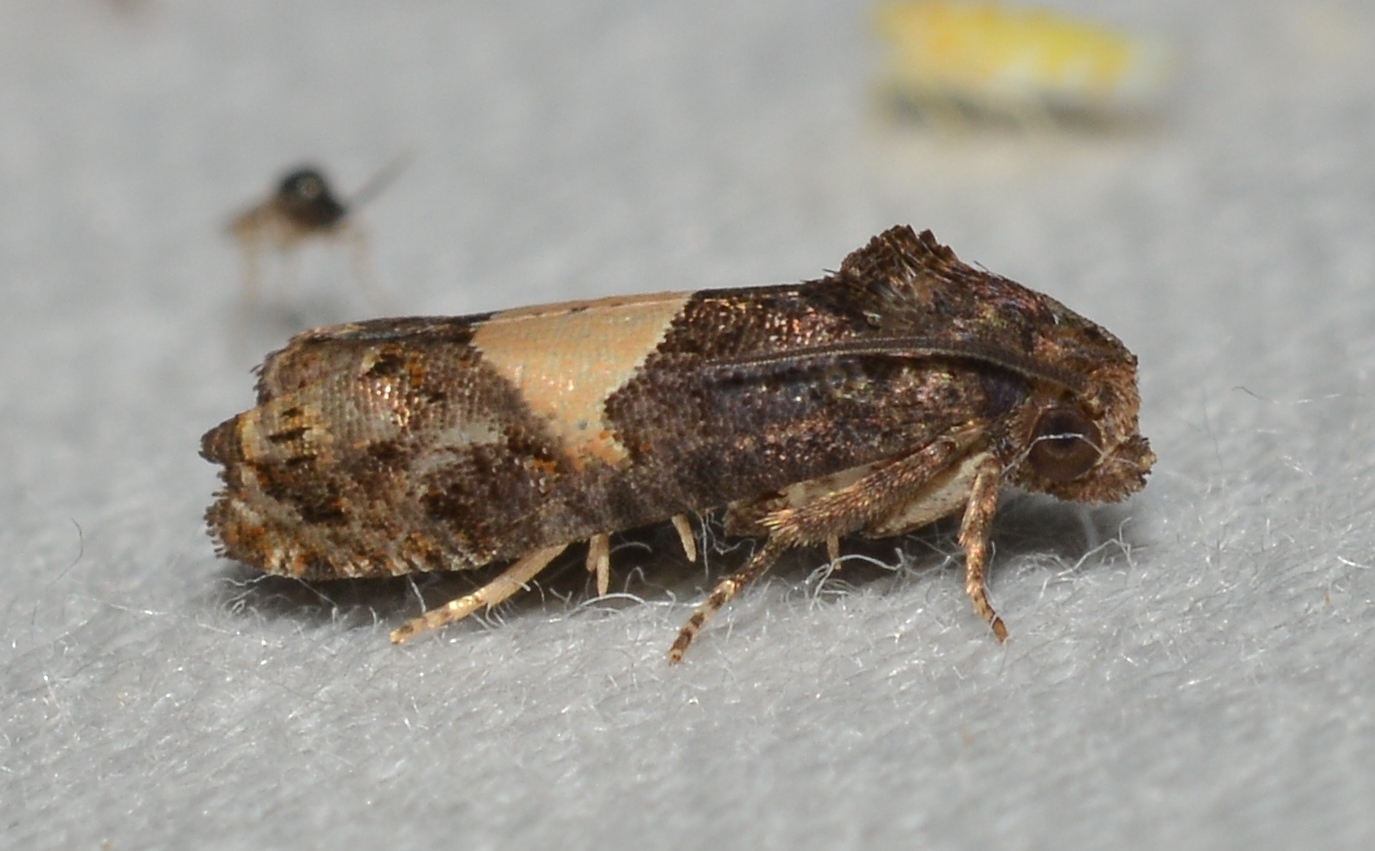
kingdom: Animalia
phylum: Arthropoda
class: Insecta
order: Lepidoptera
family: Tortricidae
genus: Epiblema
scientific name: Epiblema glenni
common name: Glenn's epiblema
